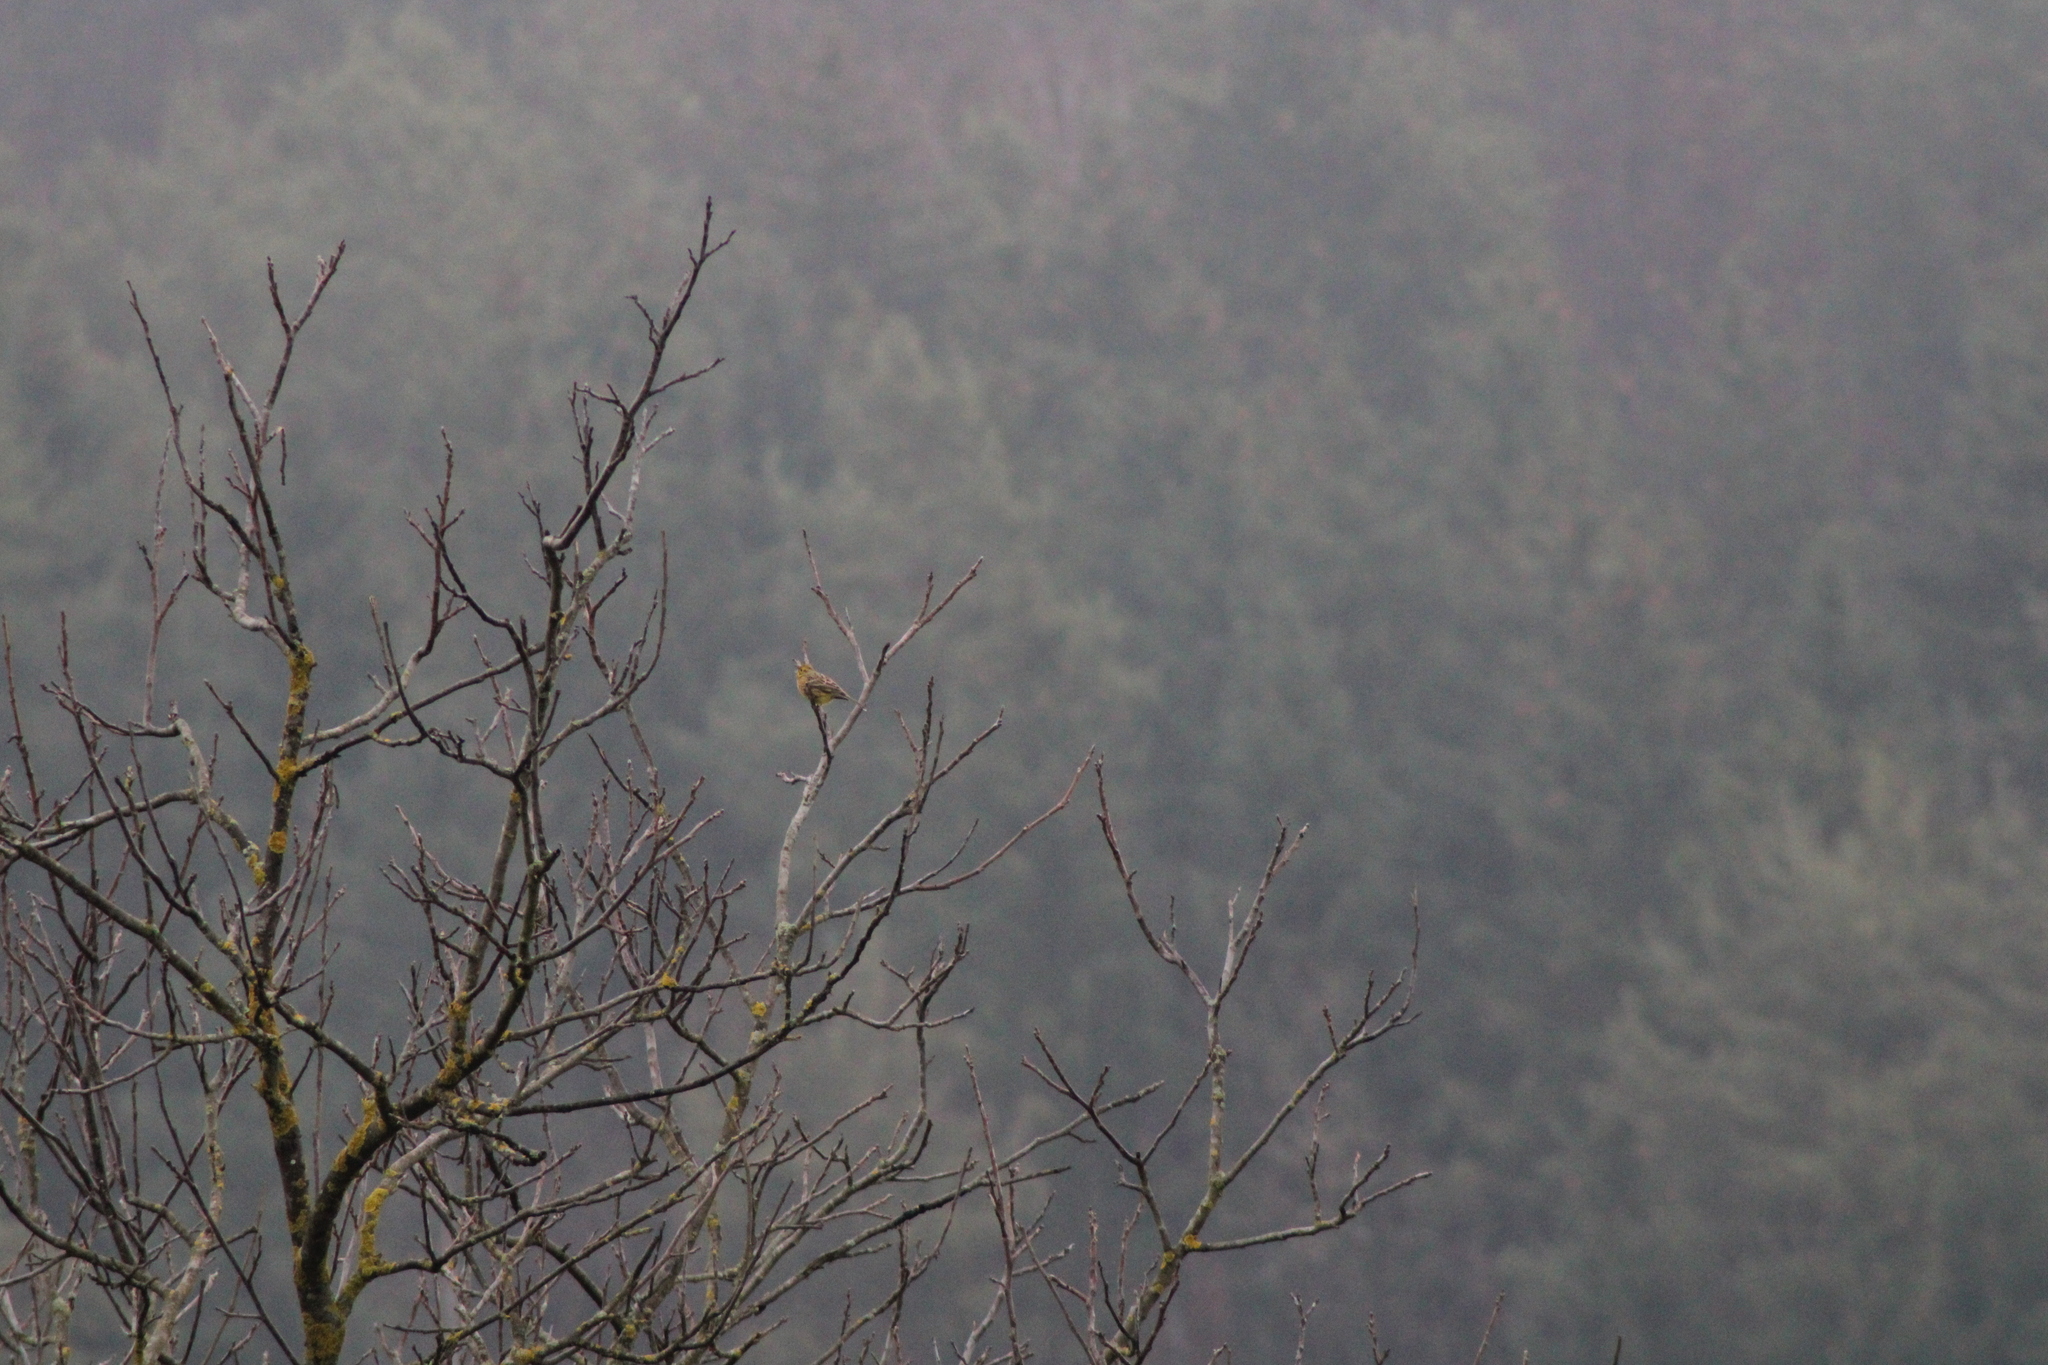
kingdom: Animalia
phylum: Chordata
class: Aves
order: Passeriformes
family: Emberizidae
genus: Emberiza
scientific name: Emberiza citrinella
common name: Yellowhammer
